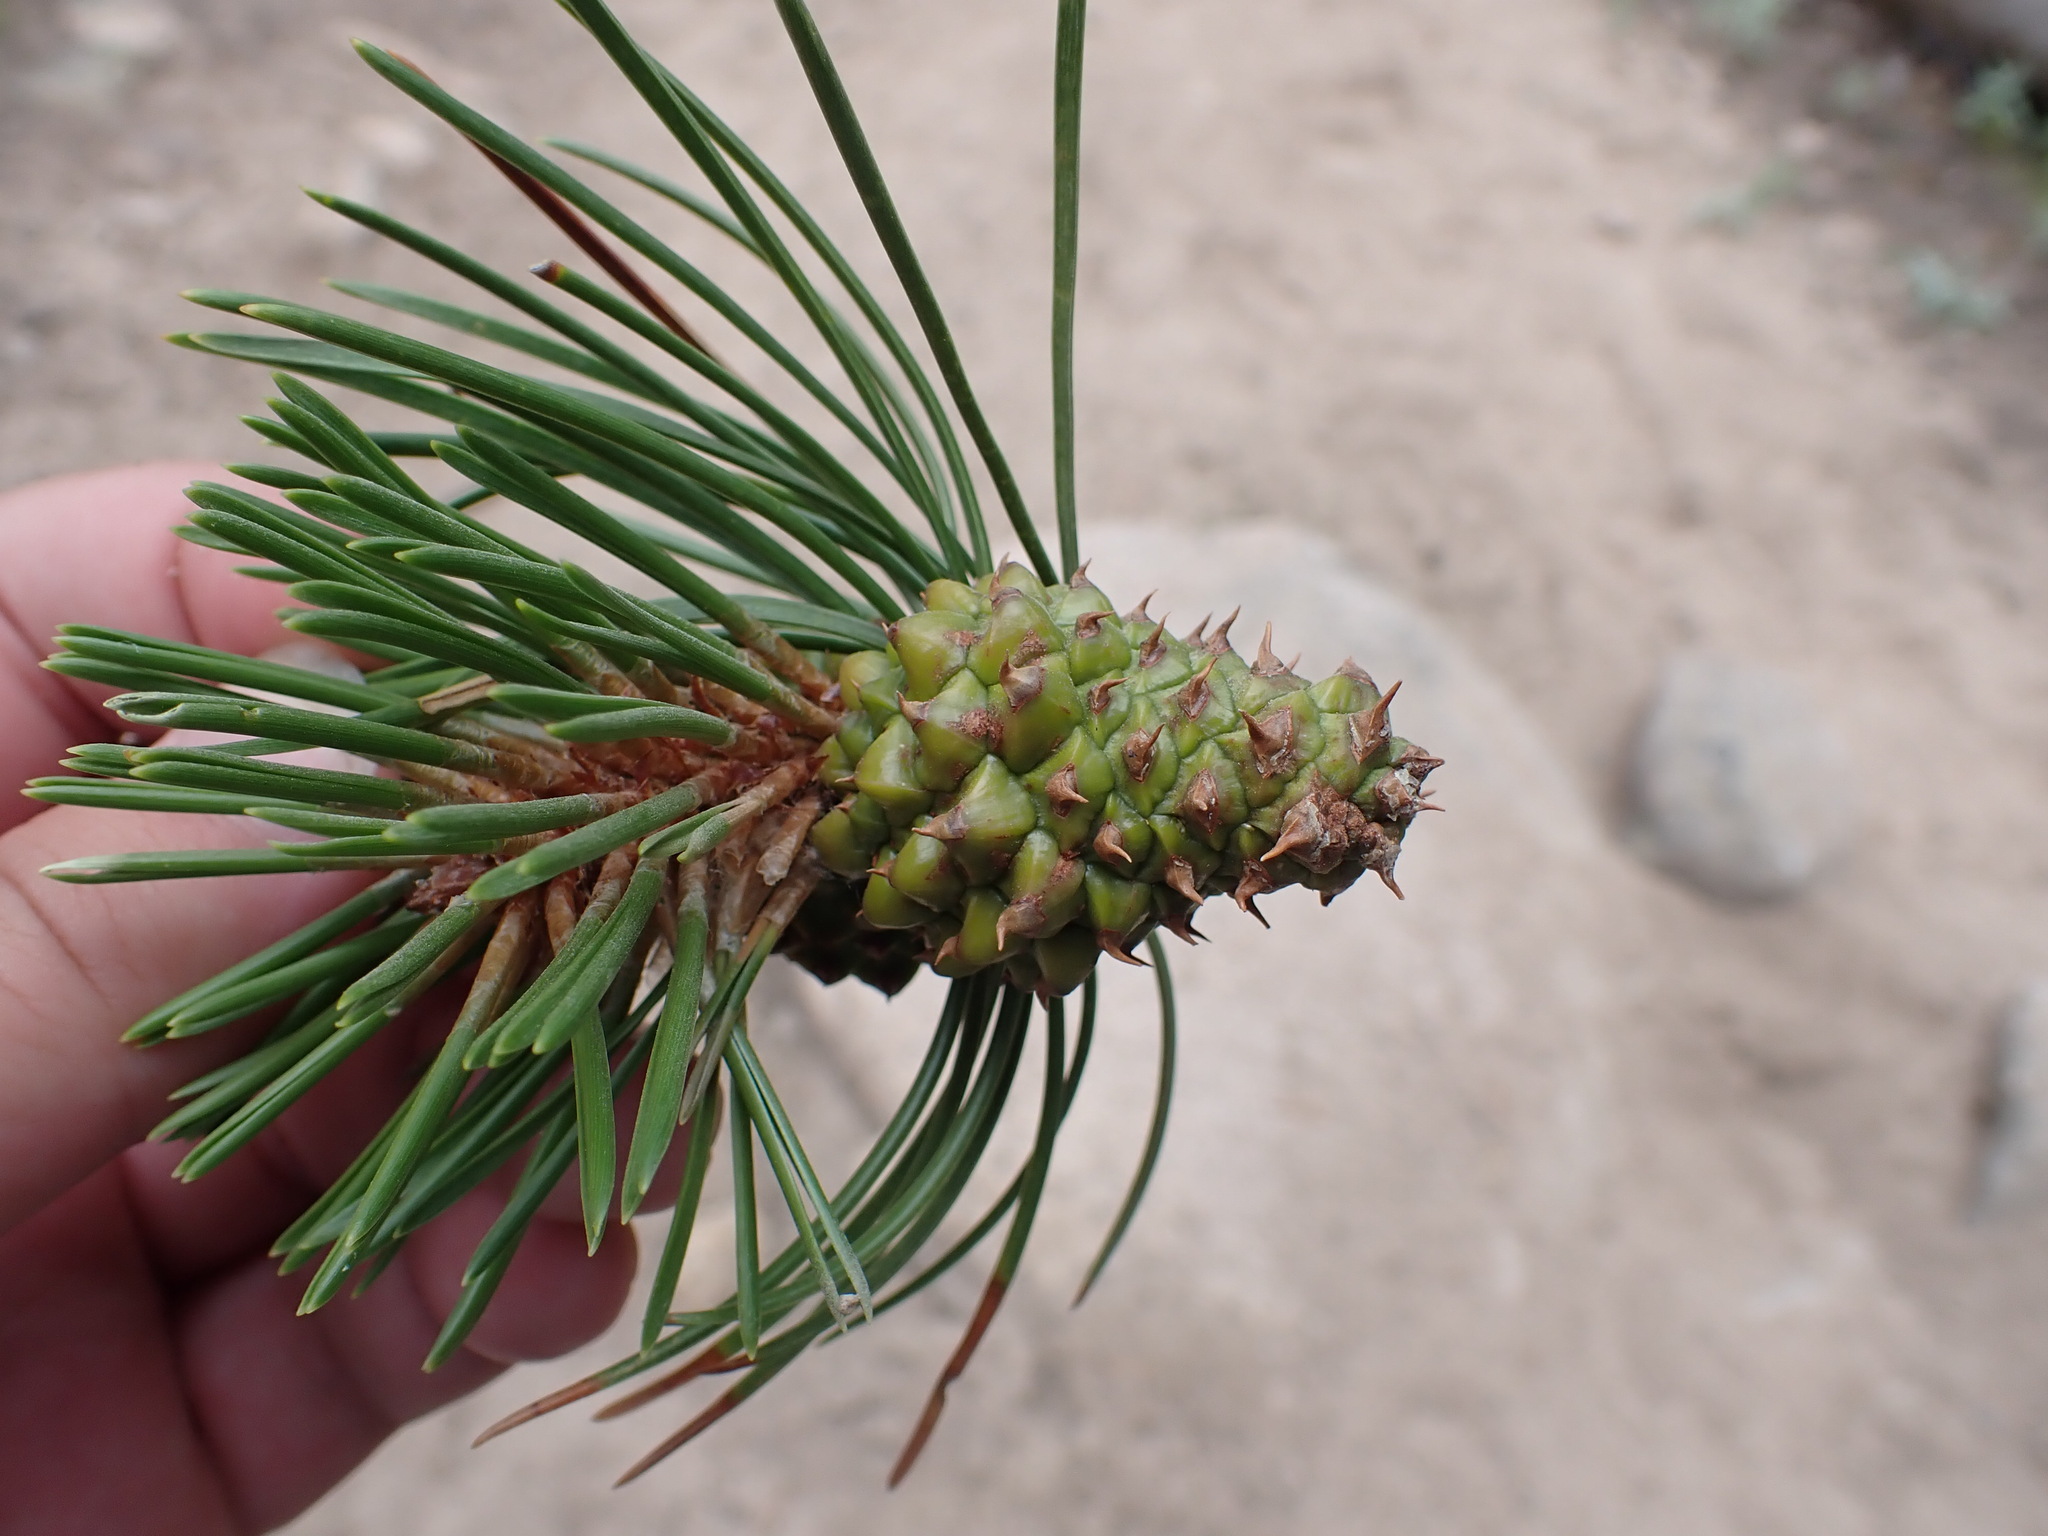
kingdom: Plantae
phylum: Tracheophyta
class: Pinopsida
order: Pinales
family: Pinaceae
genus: Pinus
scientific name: Pinus contorta
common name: Lodgepole pine
